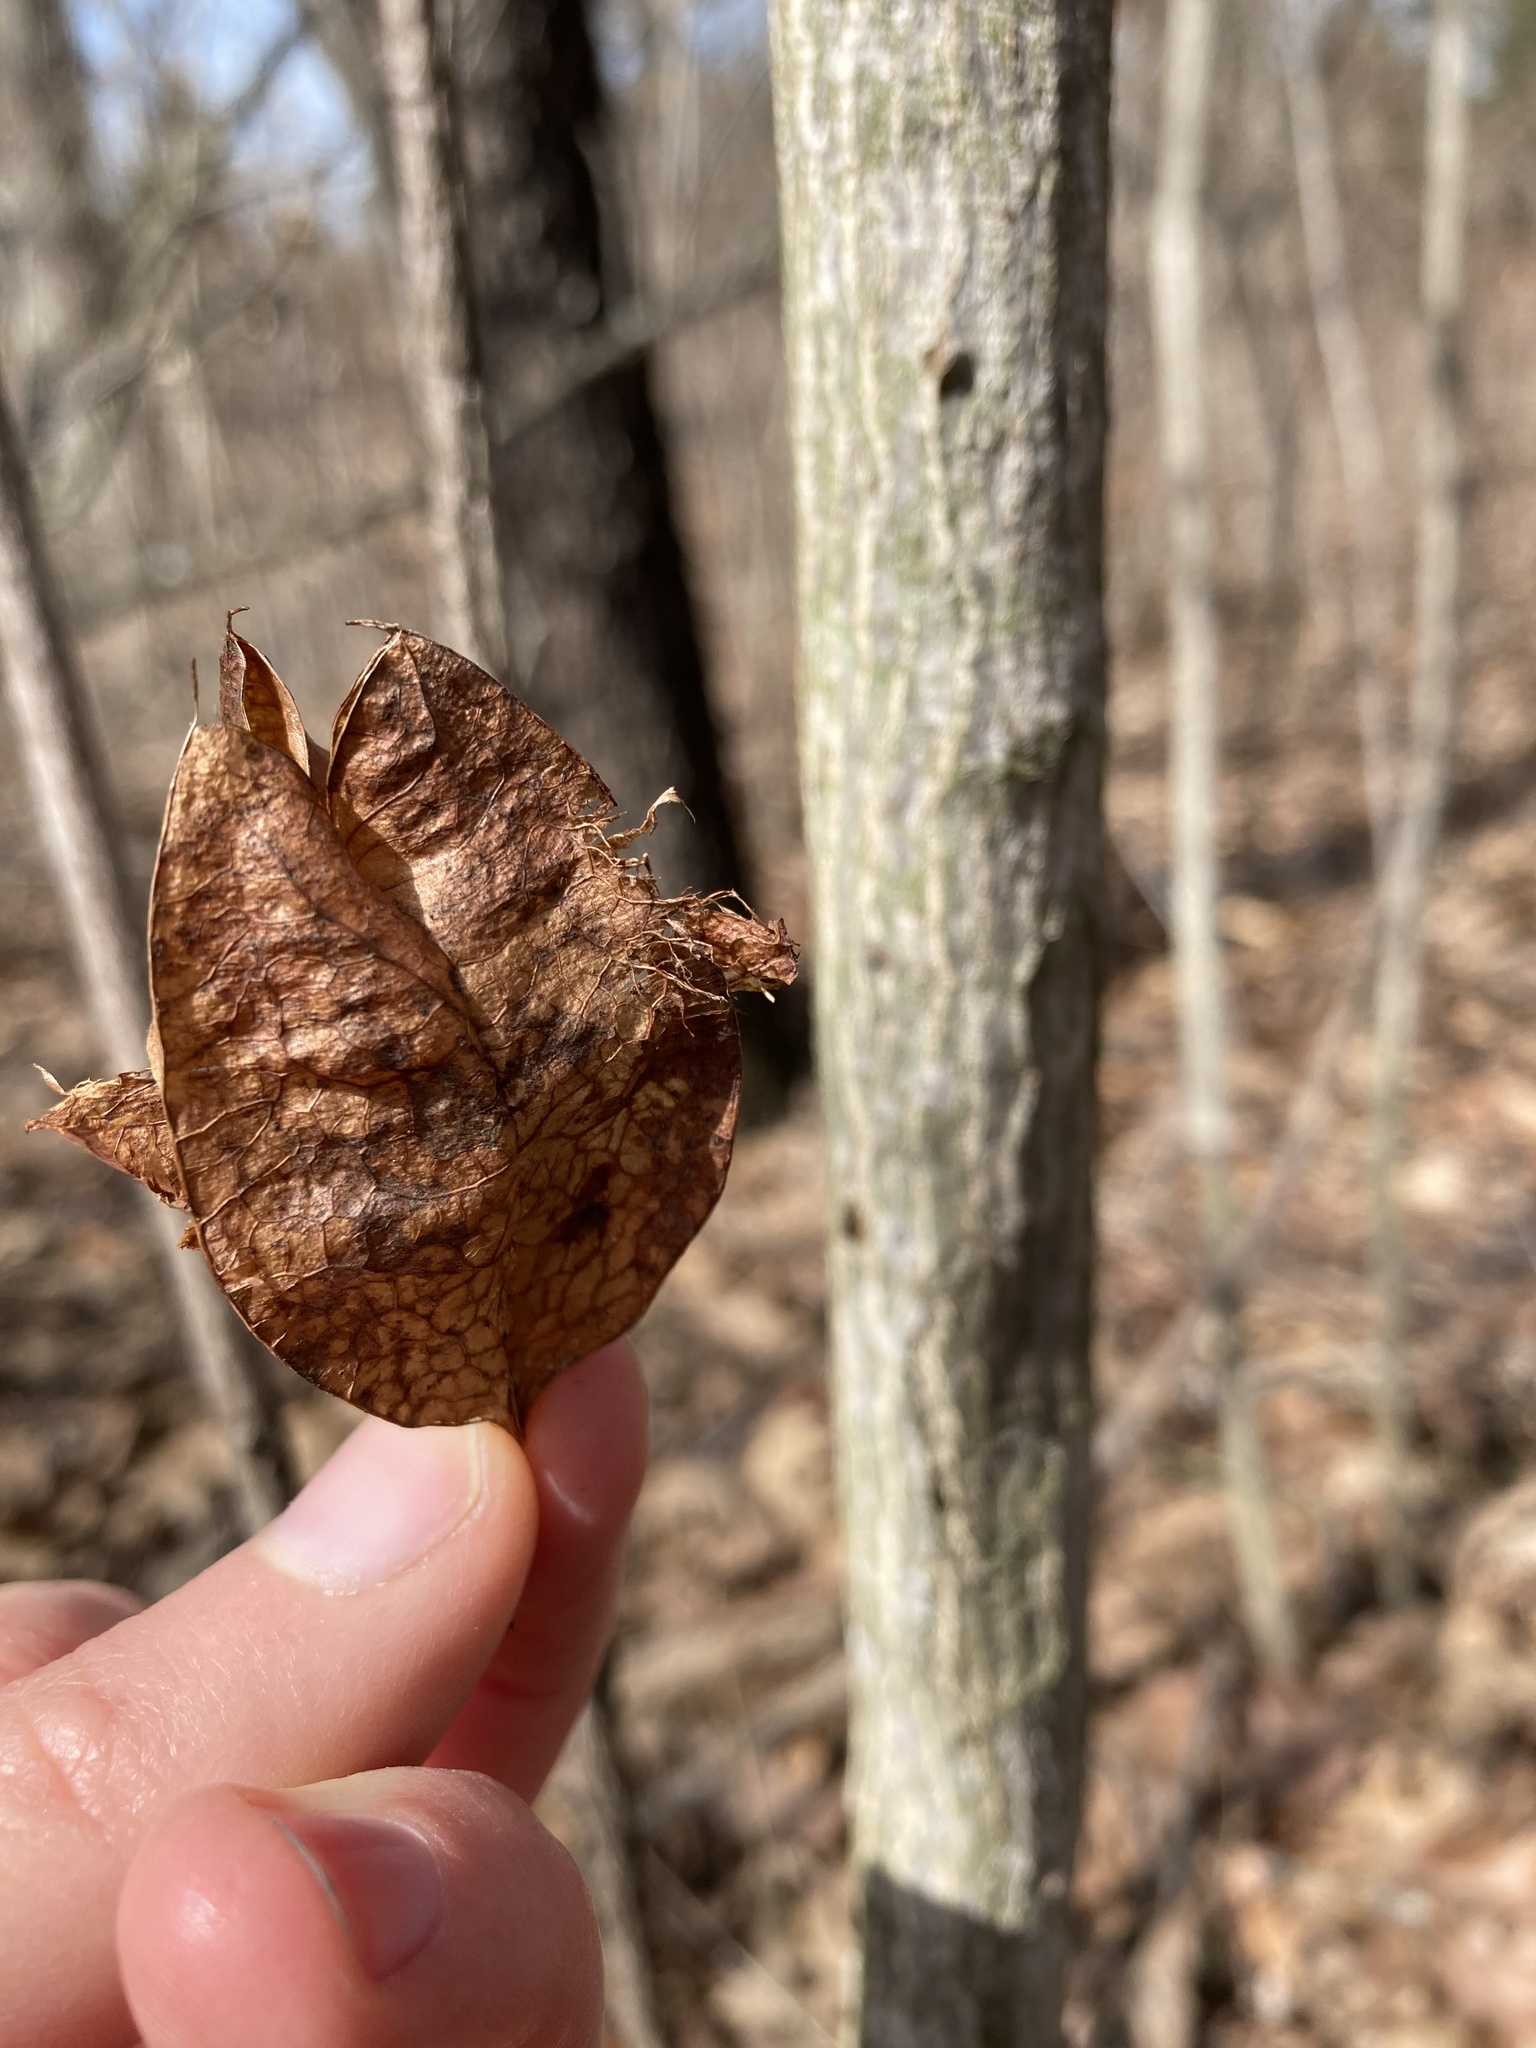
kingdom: Plantae
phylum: Tracheophyta
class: Magnoliopsida
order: Crossosomatales
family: Staphyleaceae
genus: Staphylea
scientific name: Staphylea trifolia
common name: American bladdernut
